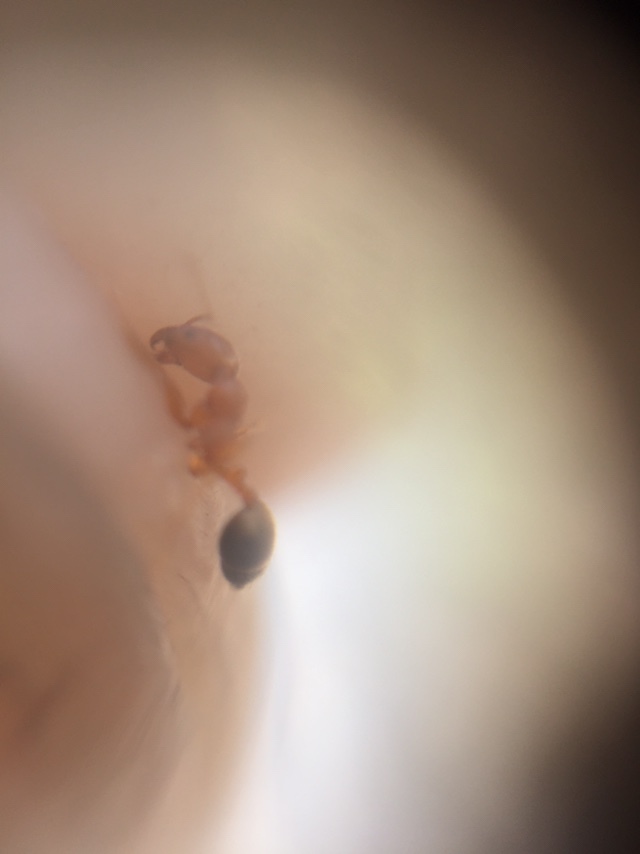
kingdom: Animalia
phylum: Arthropoda
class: Insecta
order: Hymenoptera
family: Formicidae
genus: Monomorium
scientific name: Monomorium destructor
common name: Destructive trailing ant
